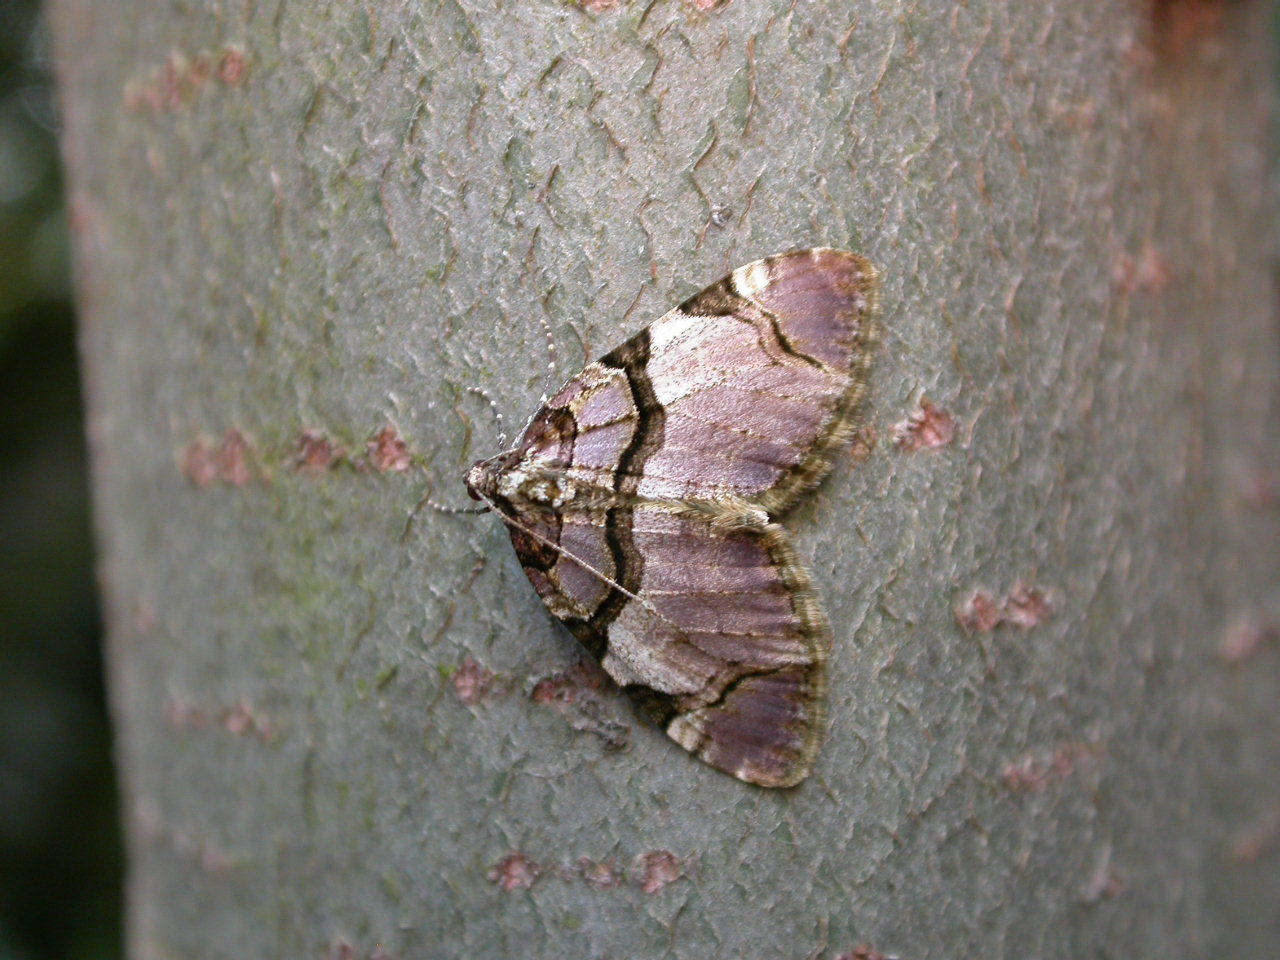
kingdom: Animalia
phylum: Arthropoda
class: Insecta
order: Lepidoptera
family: Geometridae
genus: Anticlea
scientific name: Anticlea derivata
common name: Streamer
